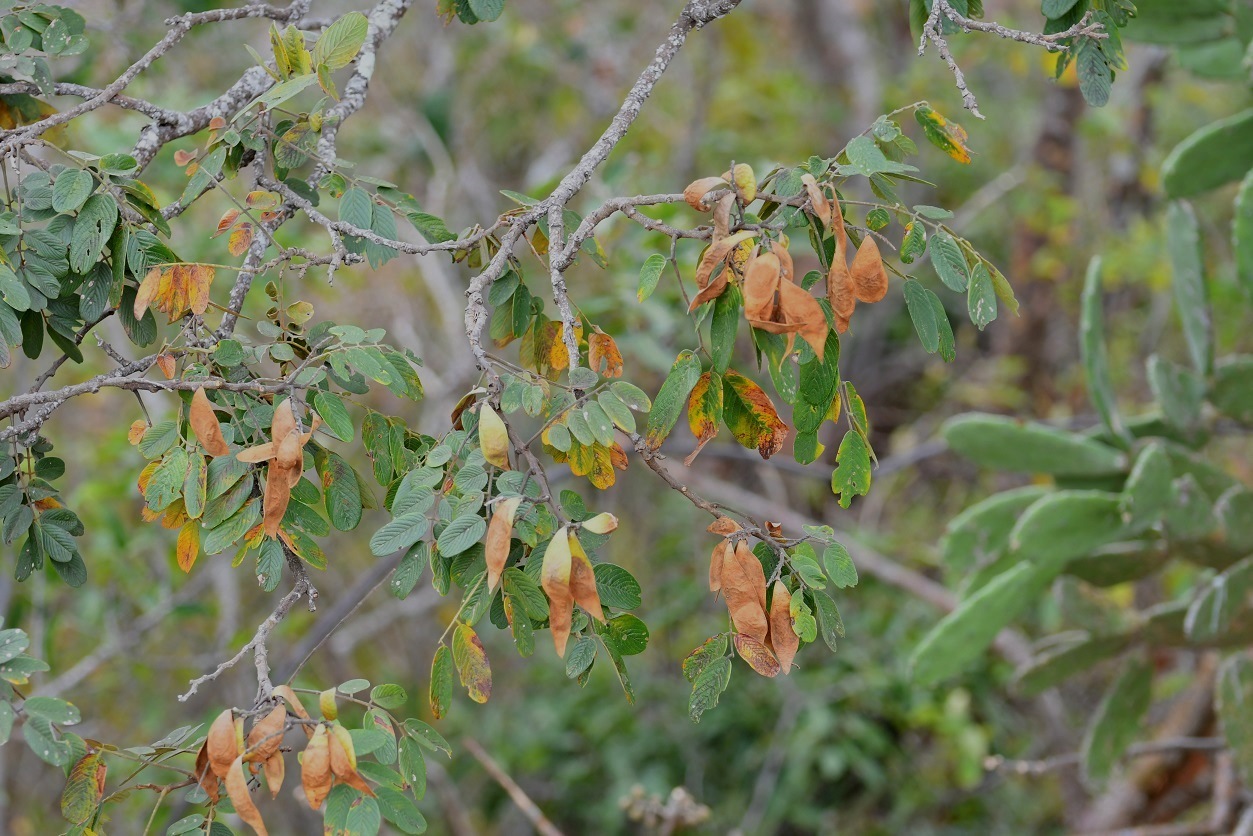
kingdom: Plantae
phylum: Tracheophyta
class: Magnoliopsida
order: Fabales
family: Fabaceae
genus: Lonchocarpus
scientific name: Lonchocarpus rugosus
